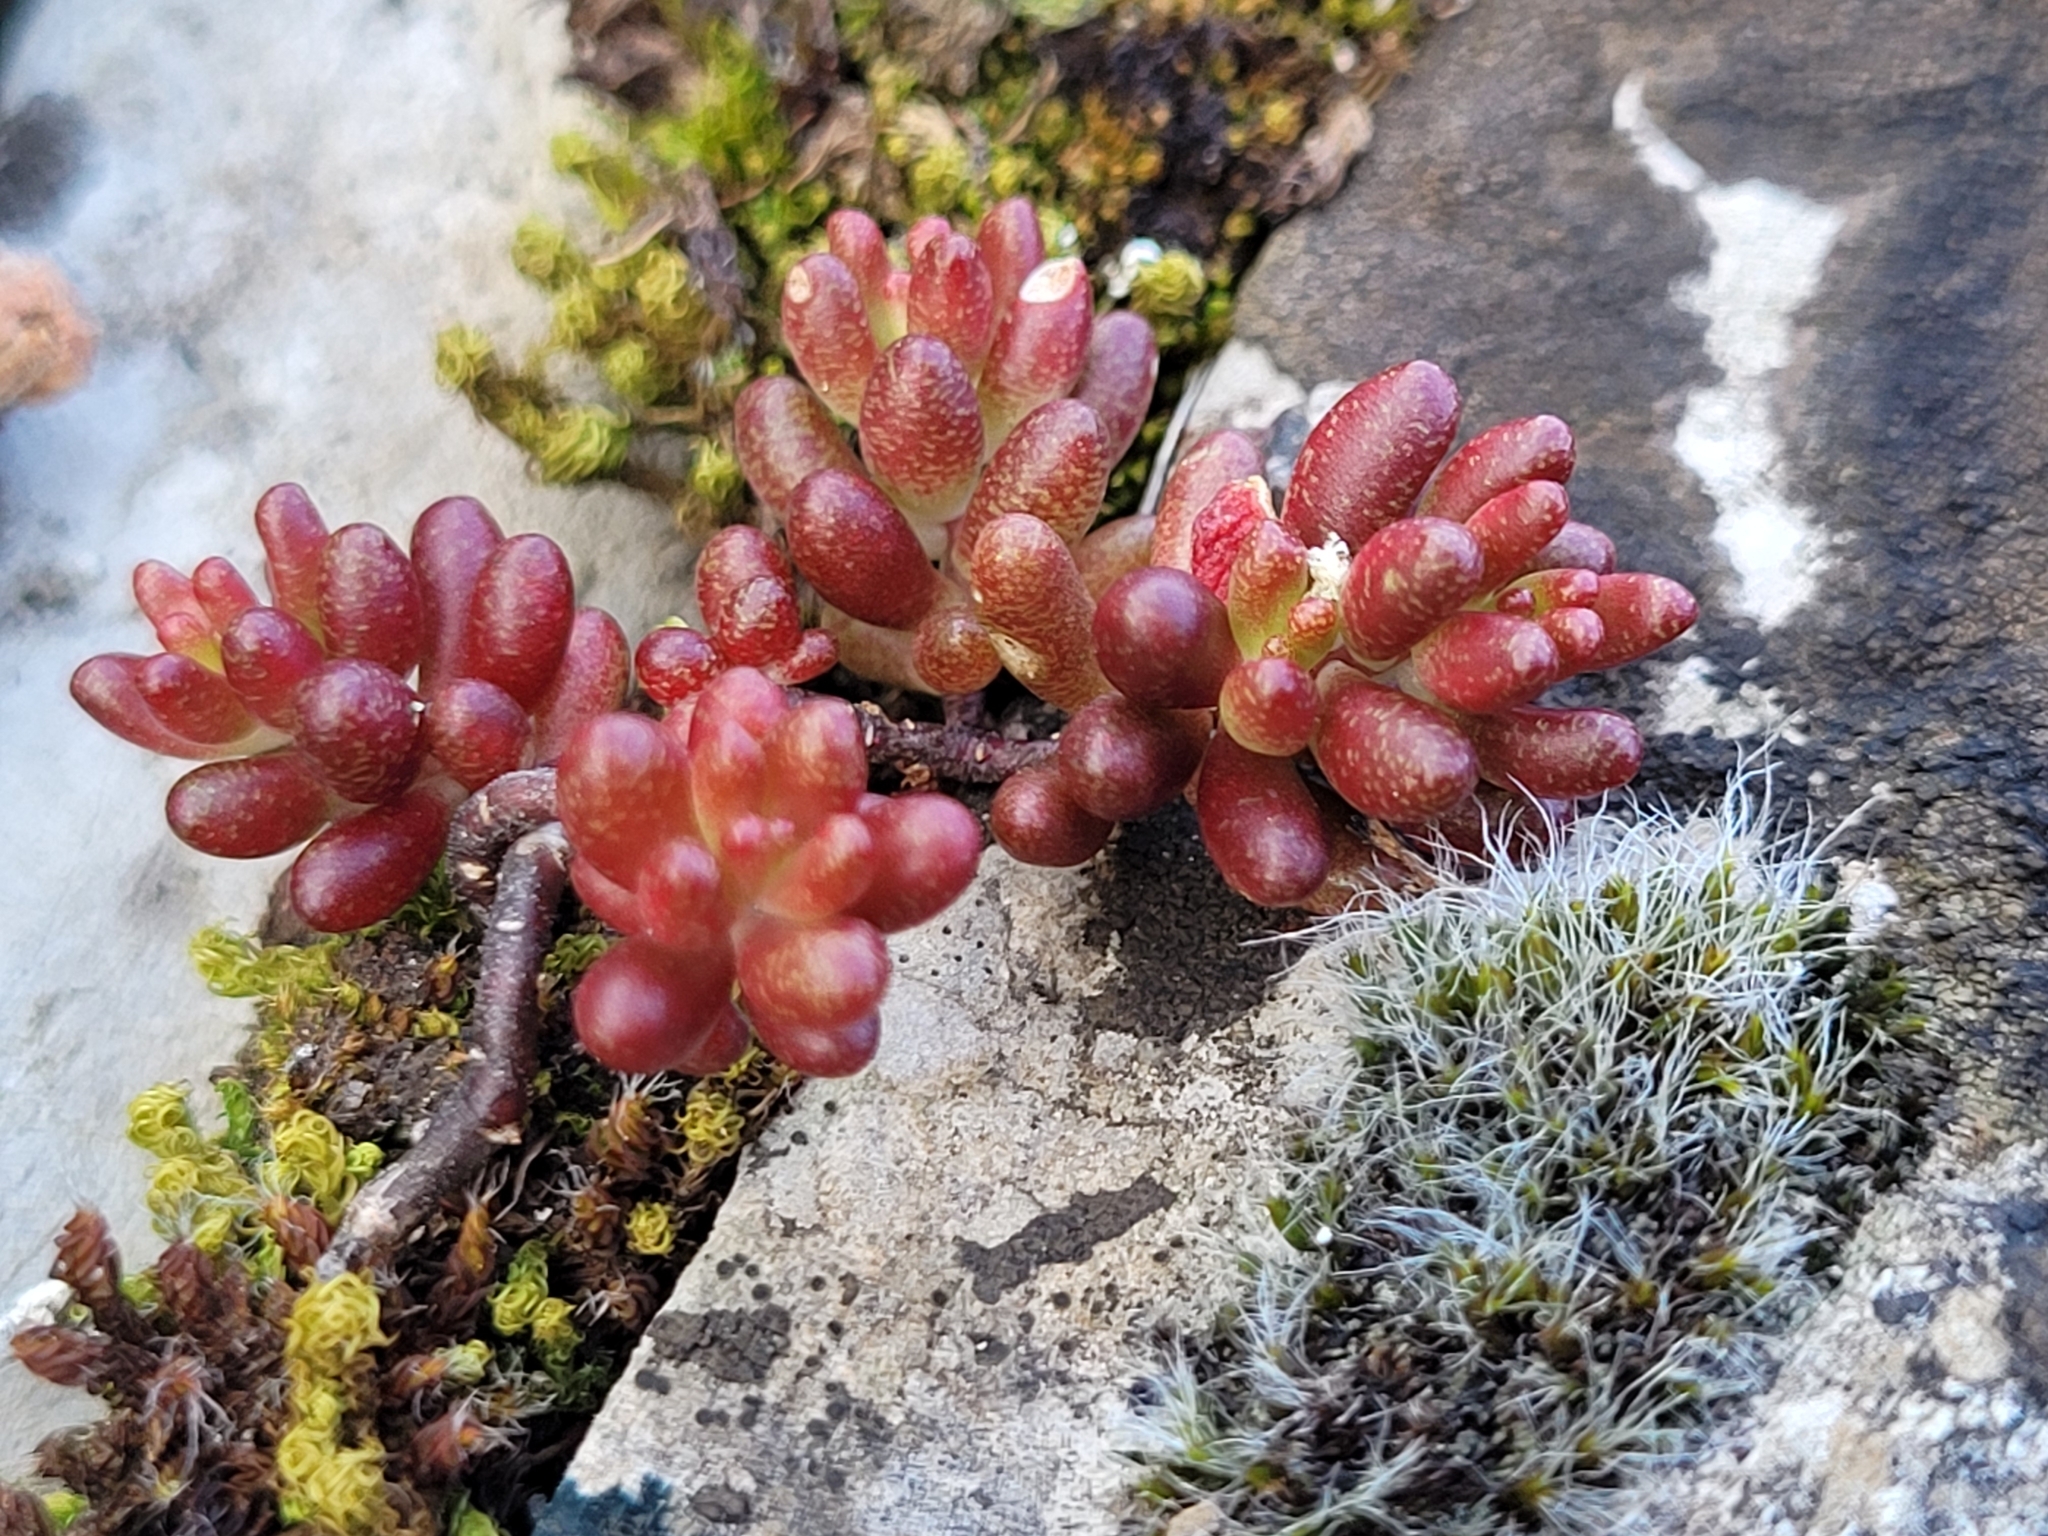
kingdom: Plantae
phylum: Tracheophyta
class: Magnoliopsida
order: Saxifragales
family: Crassulaceae
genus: Sedum
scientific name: Sedum album
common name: White stonecrop
